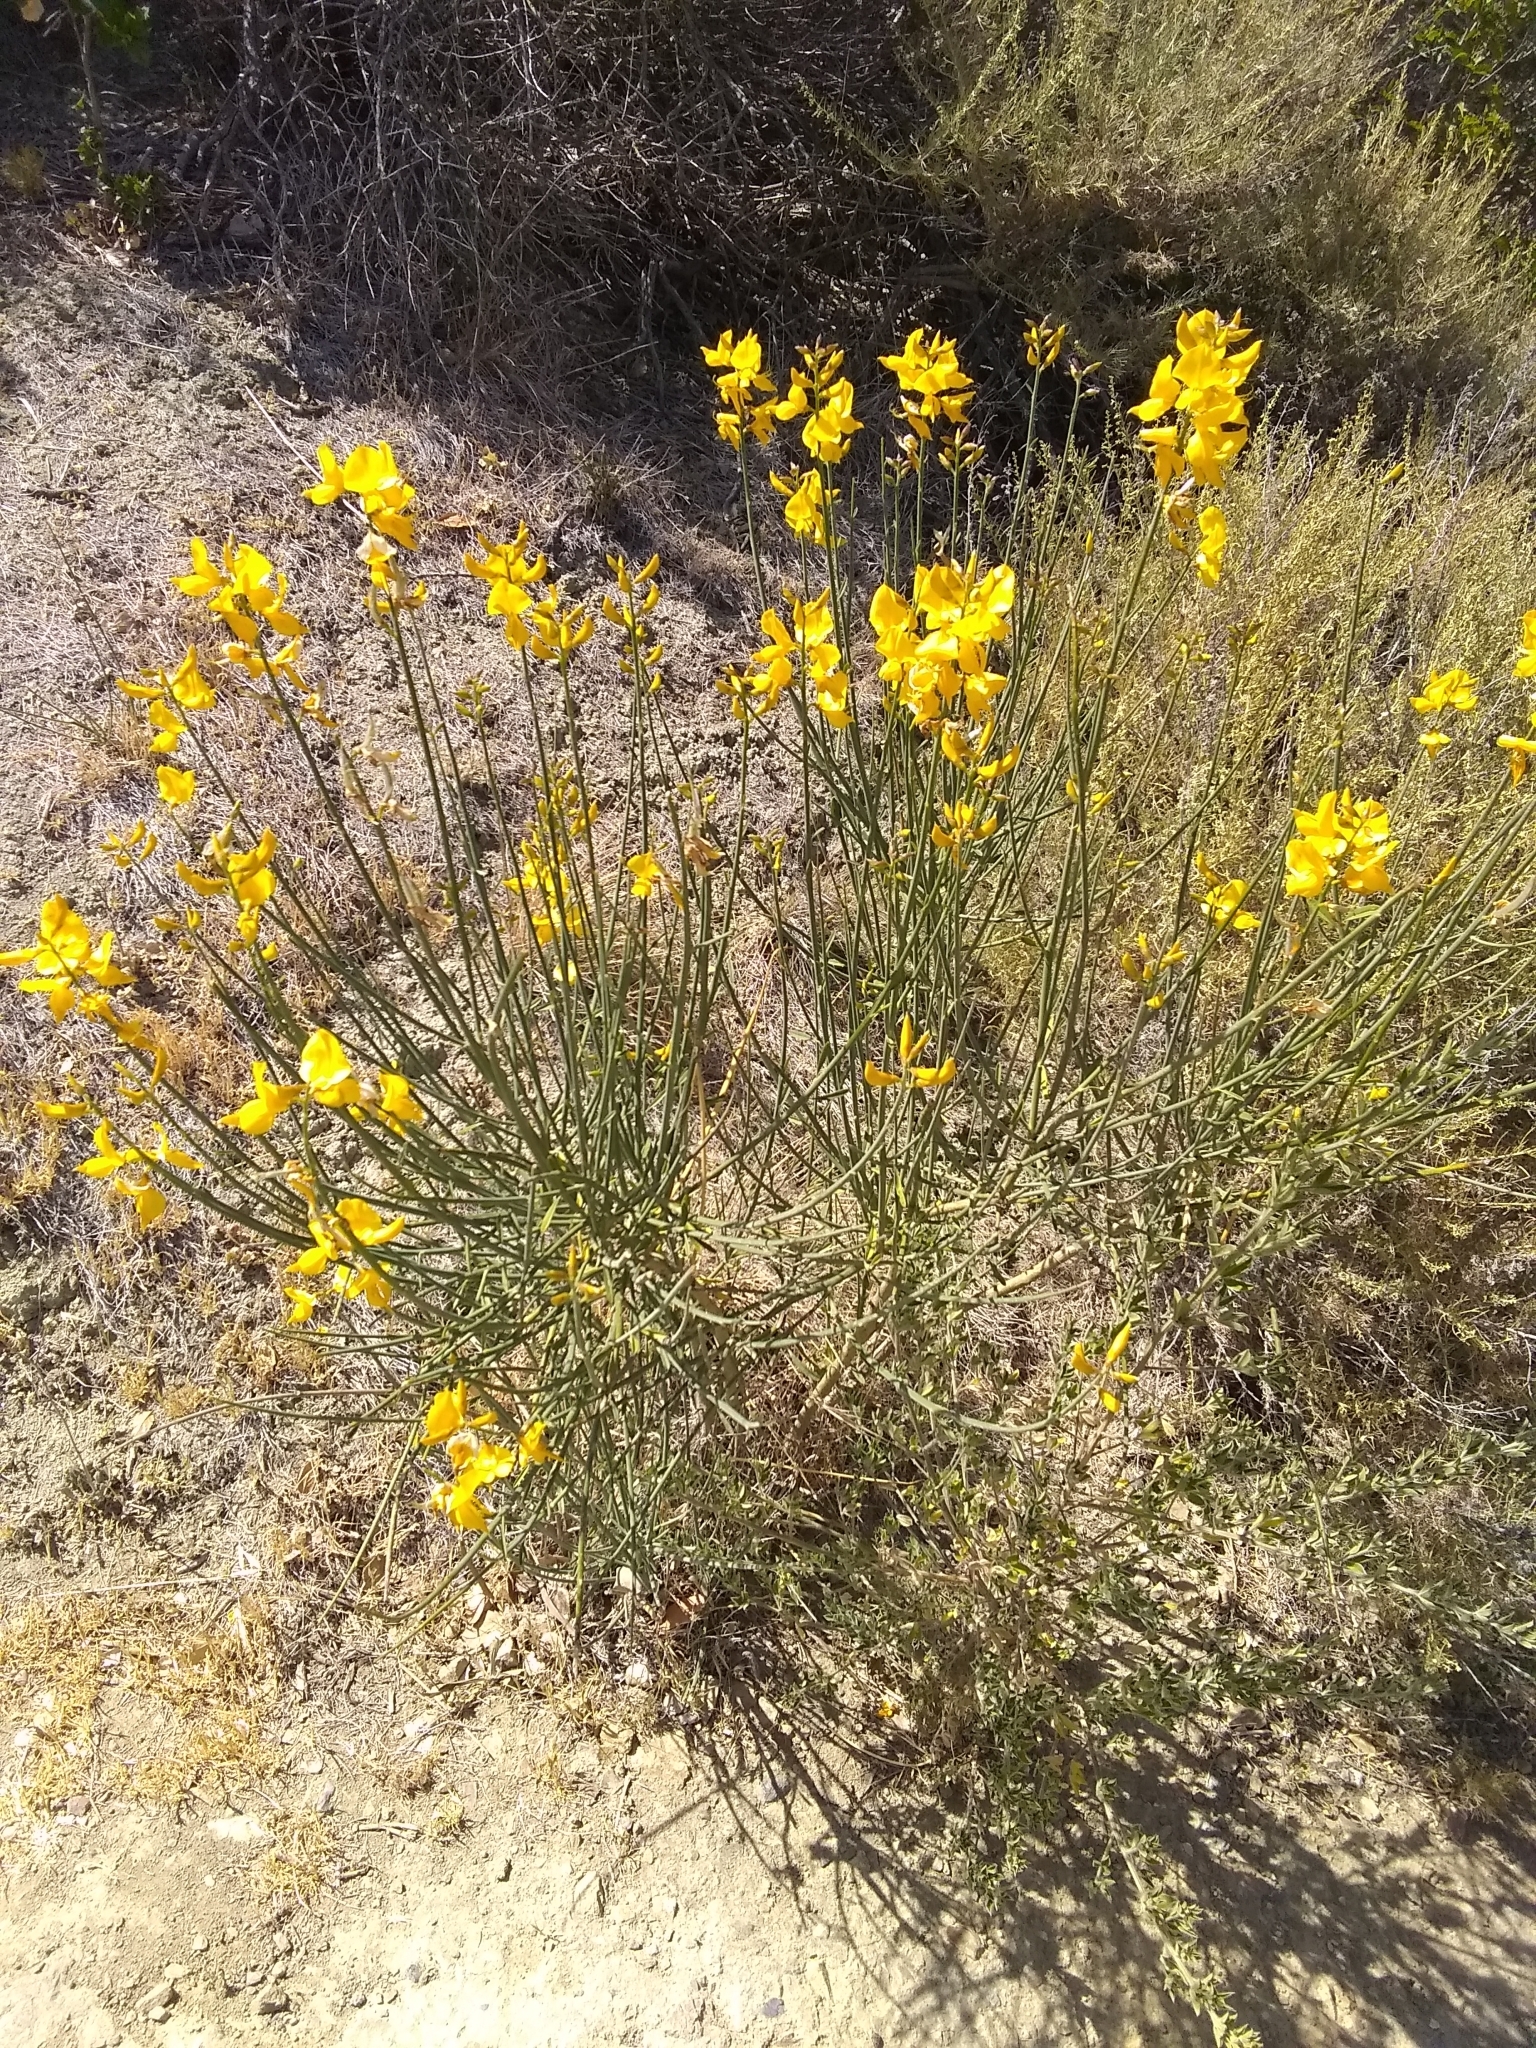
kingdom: Plantae
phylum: Tracheophyta
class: Magnoliopsida
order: Fabales
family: Fabaceae
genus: Spartium
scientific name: Spartium junceum
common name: Spanish broom
